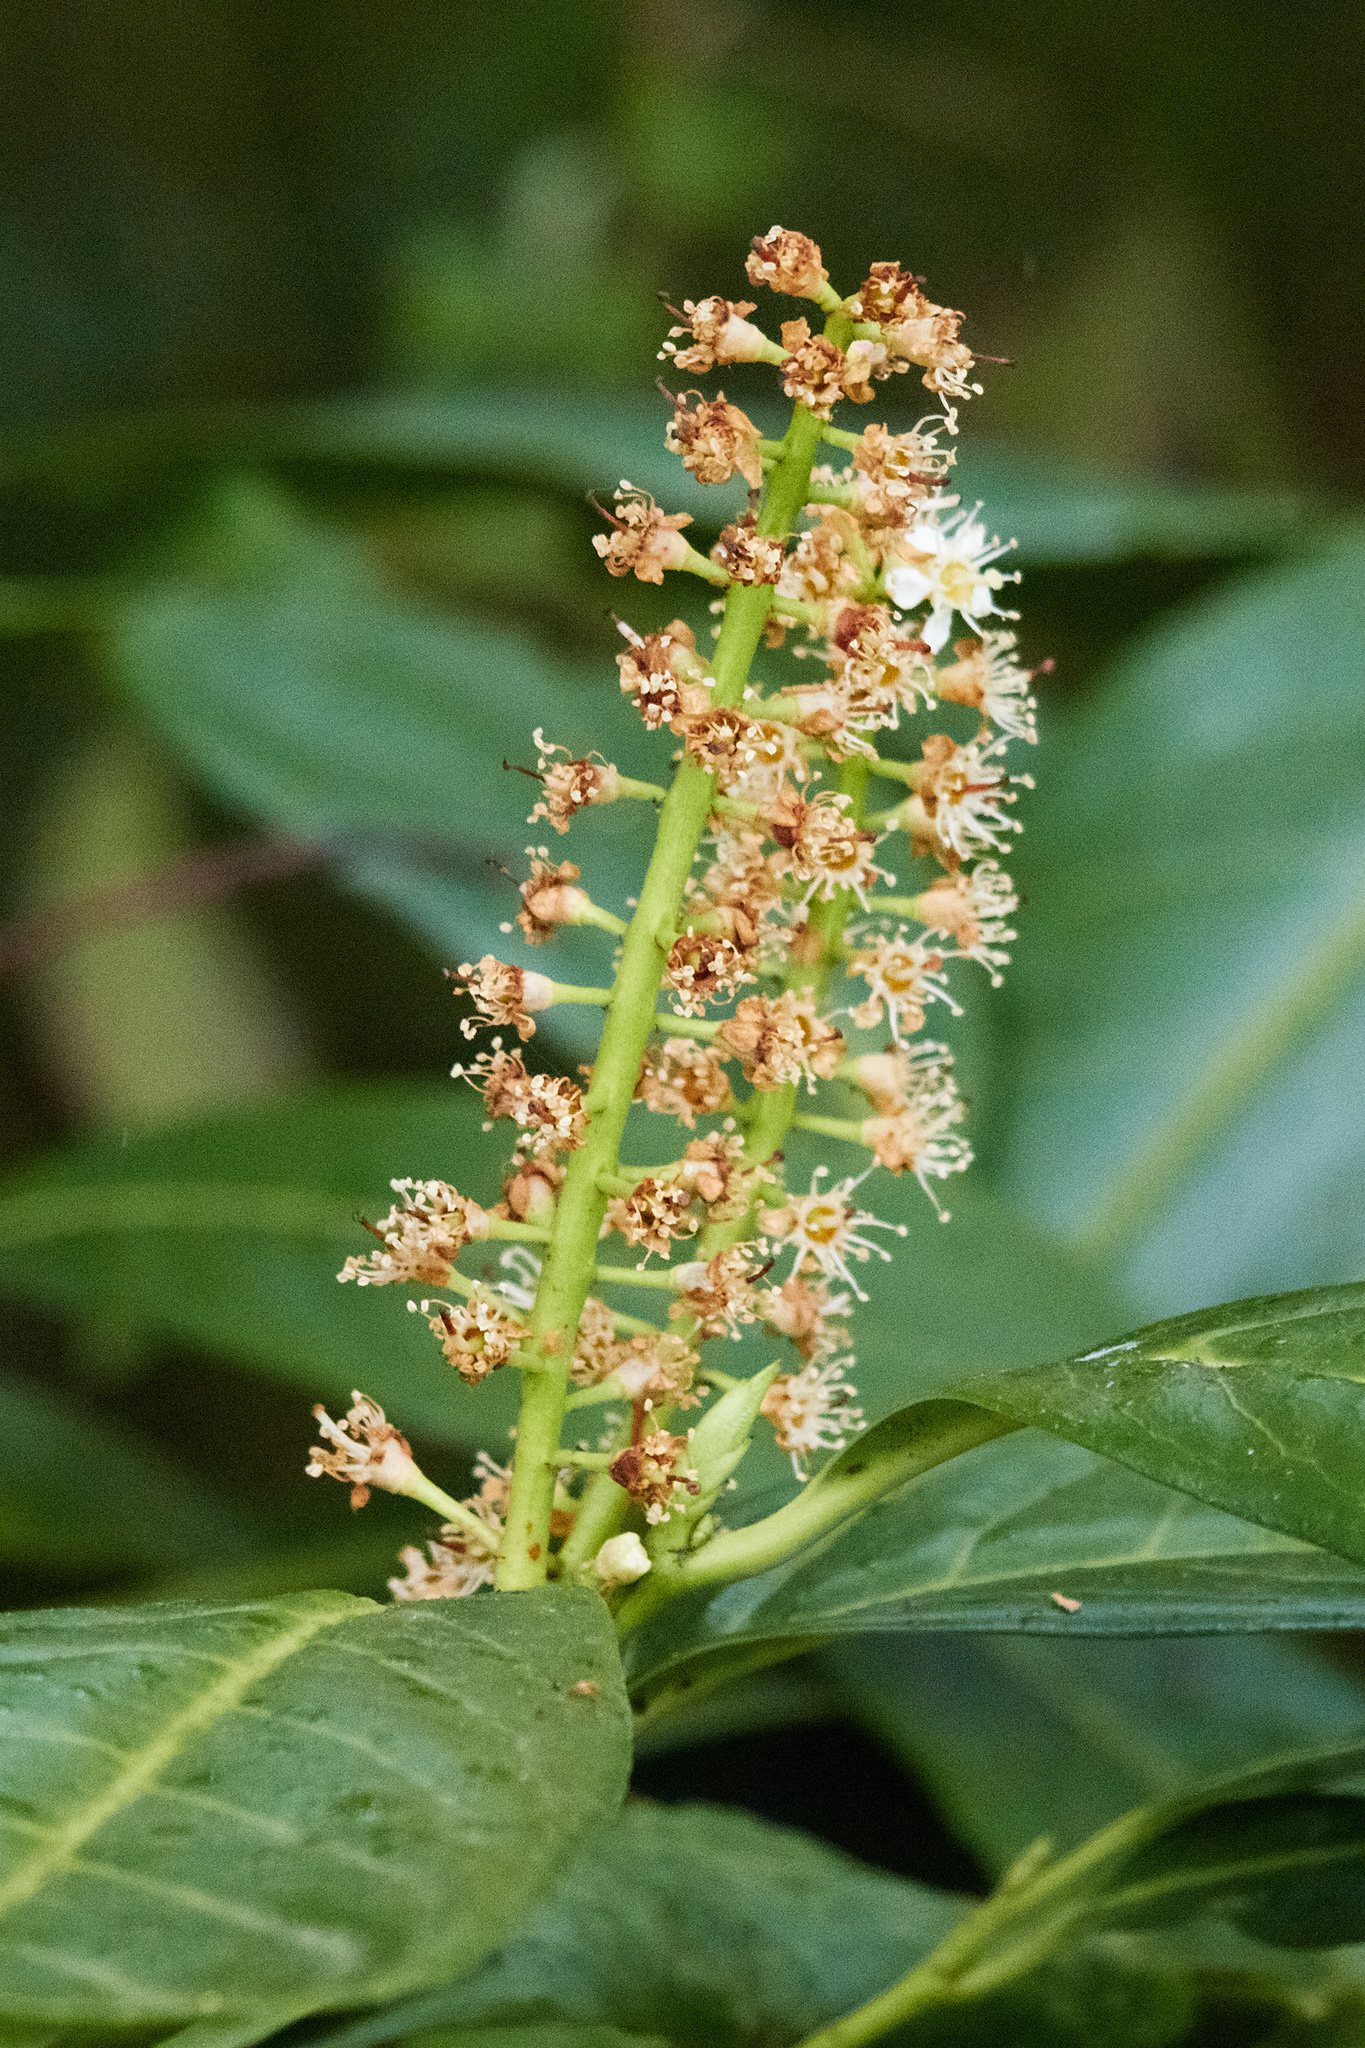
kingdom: Plantae
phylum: Tracheophyta
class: Magnoliopsida
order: Rosales
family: Rosaceae
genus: Prunus
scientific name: Prunus laurocerasus
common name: Cherry laurel
